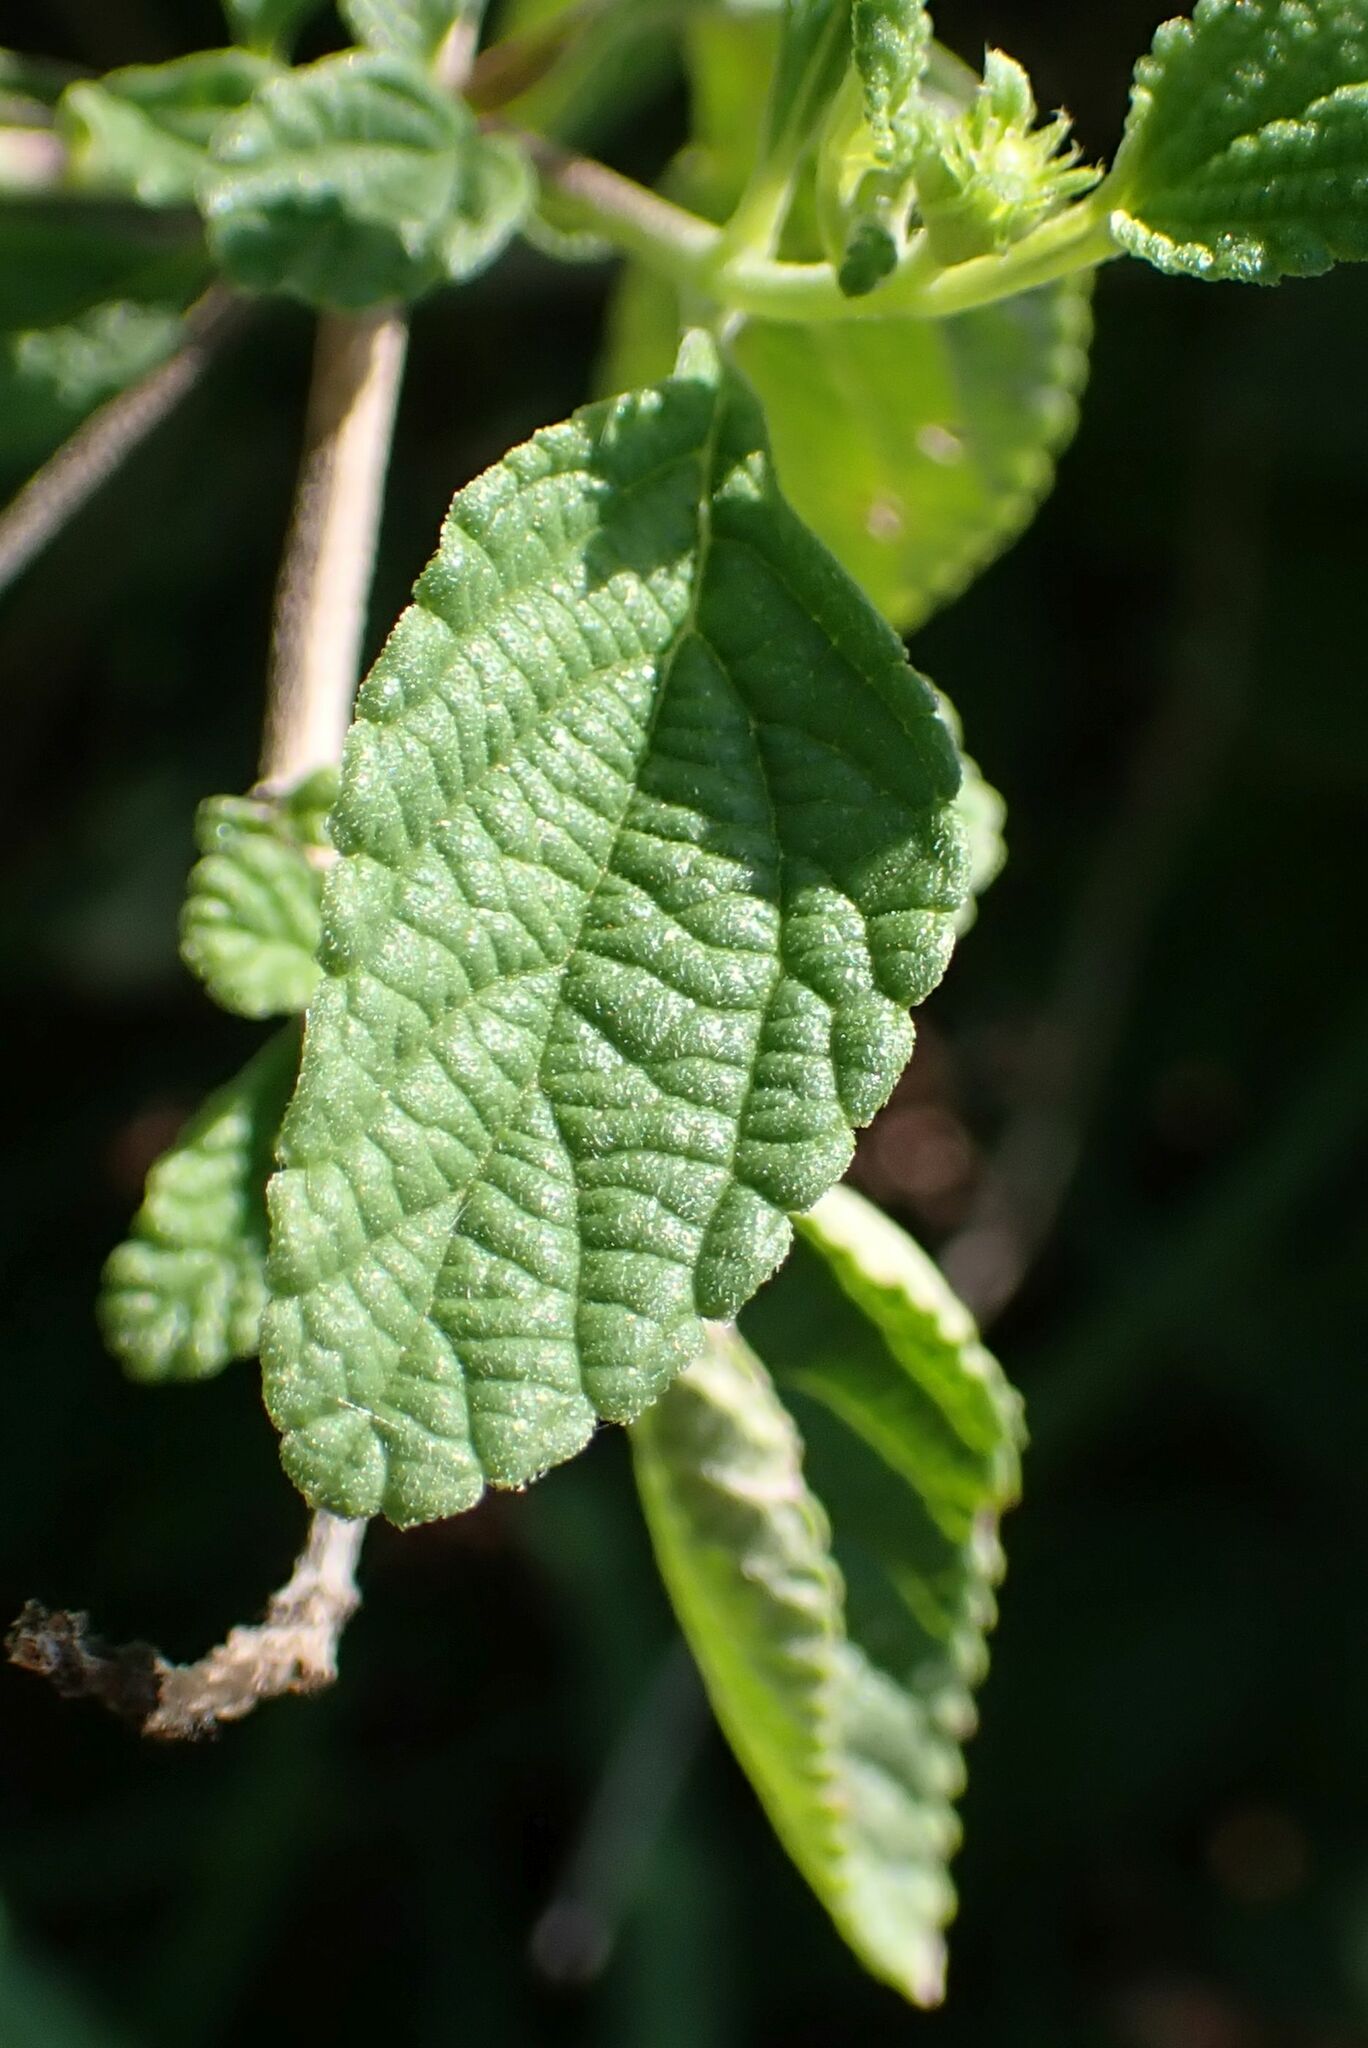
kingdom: Plantae
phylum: Tracheophyta
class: Magnoliopsida
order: Lamiales
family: Verbenaceae
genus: Lantana
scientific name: Lantana rugosa
